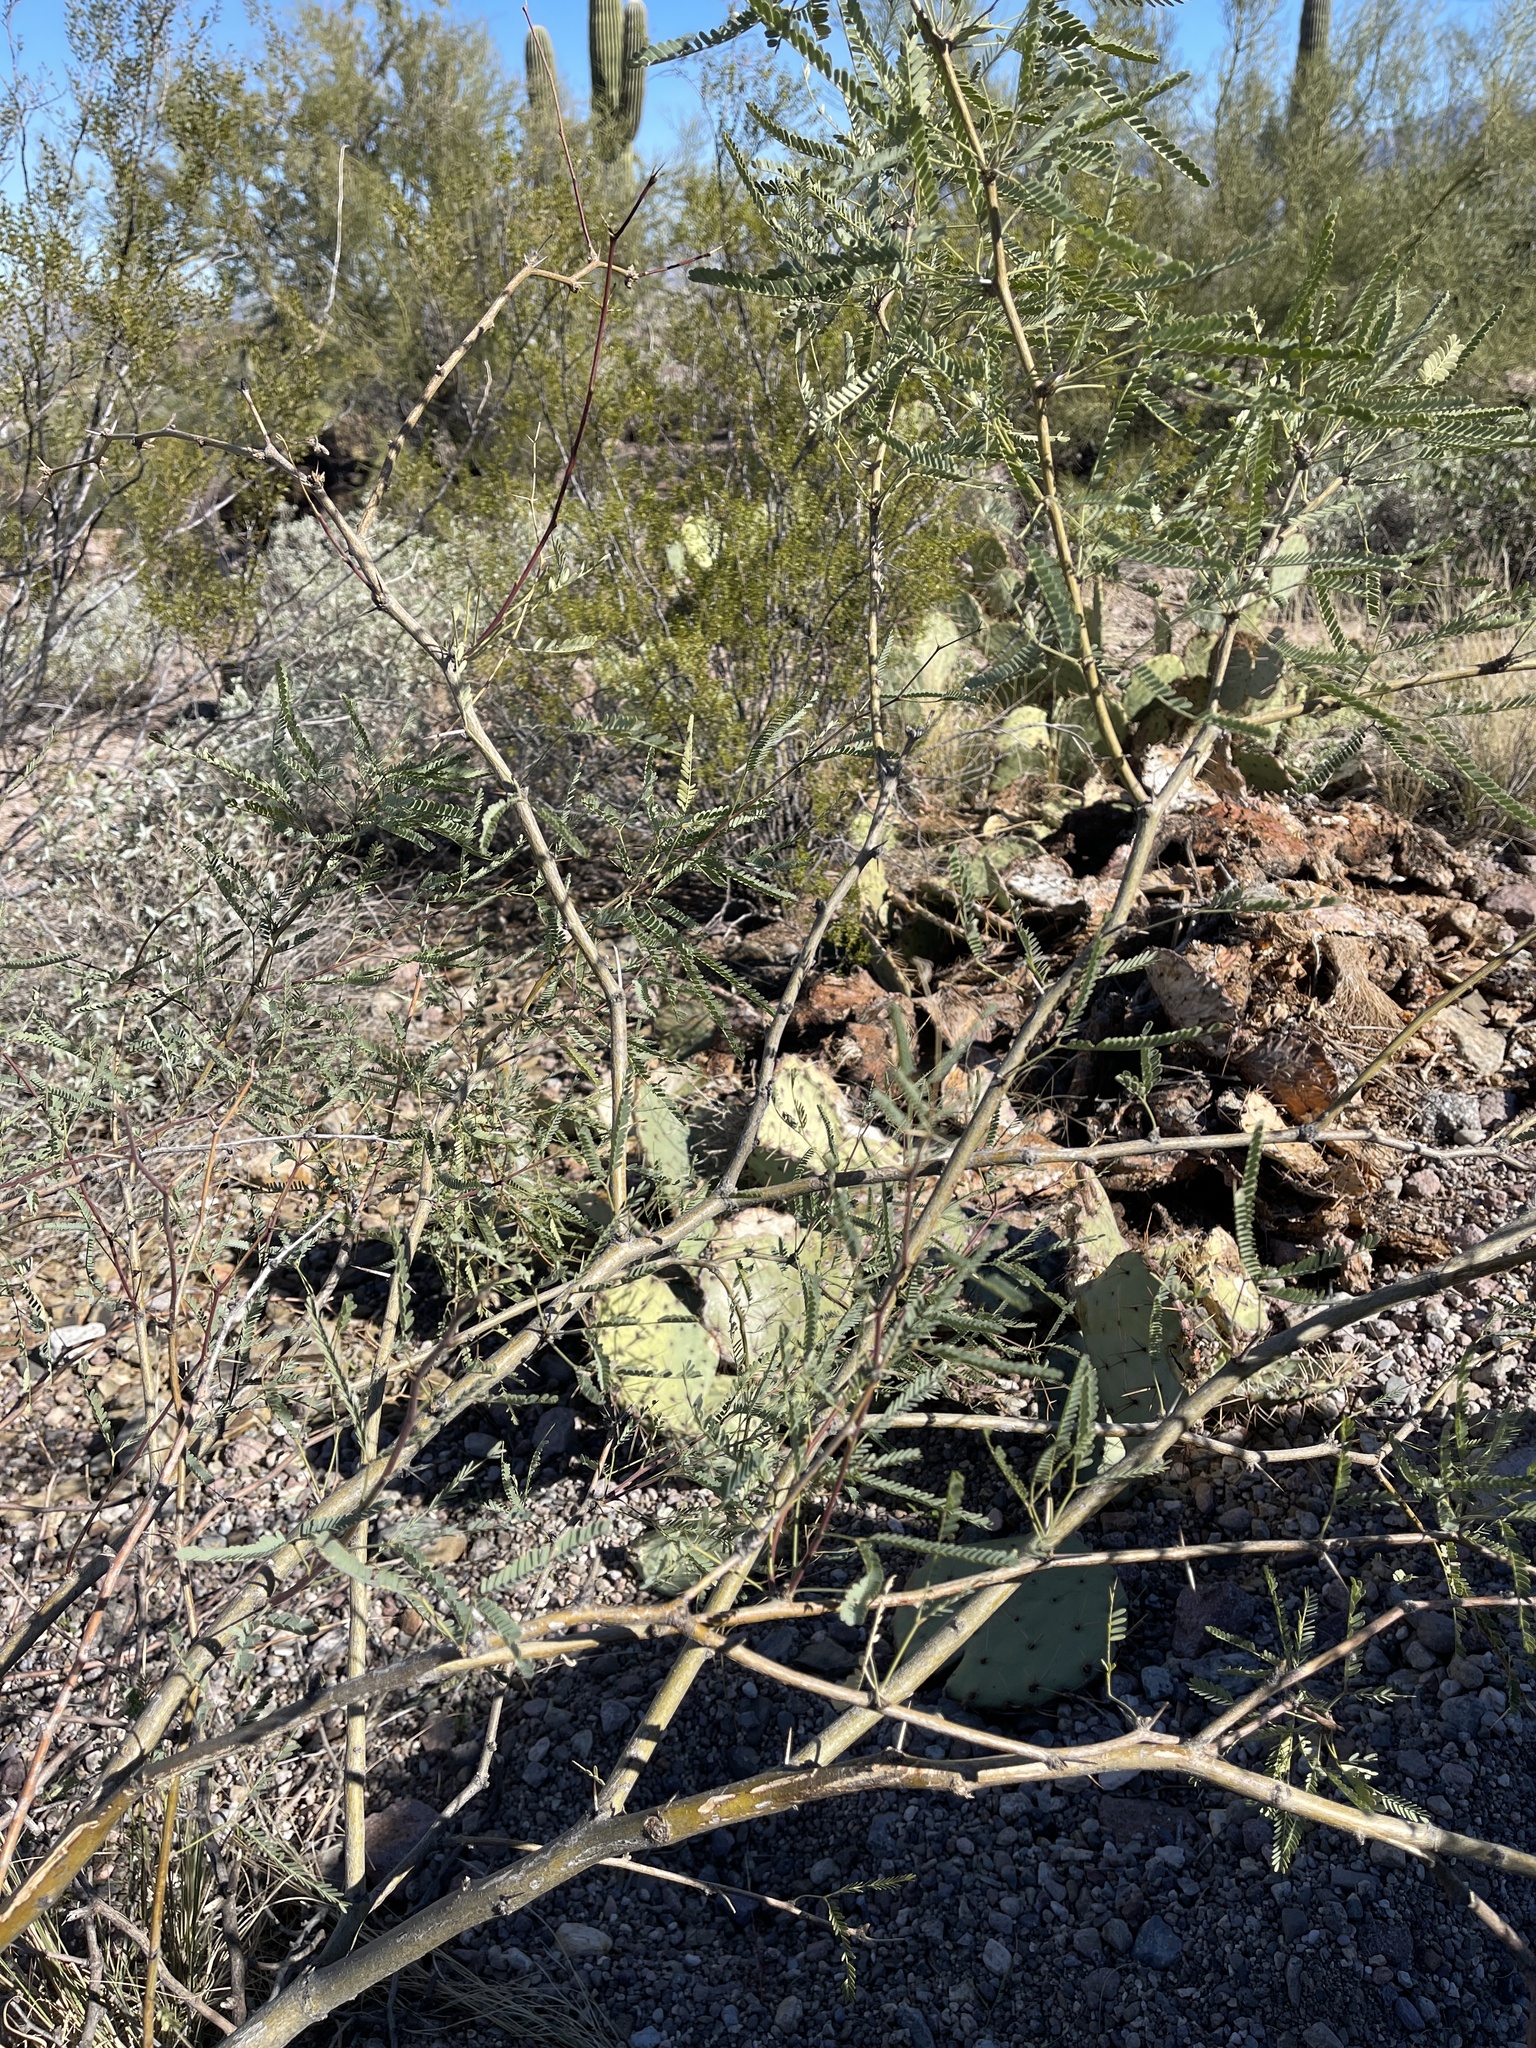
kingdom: Plantae
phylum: Tracheophyta
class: Magnoliopsida
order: Fabales
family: Fabaceae
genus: Prosopis
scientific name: Prosopis velutina
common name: Velvet mesquite
